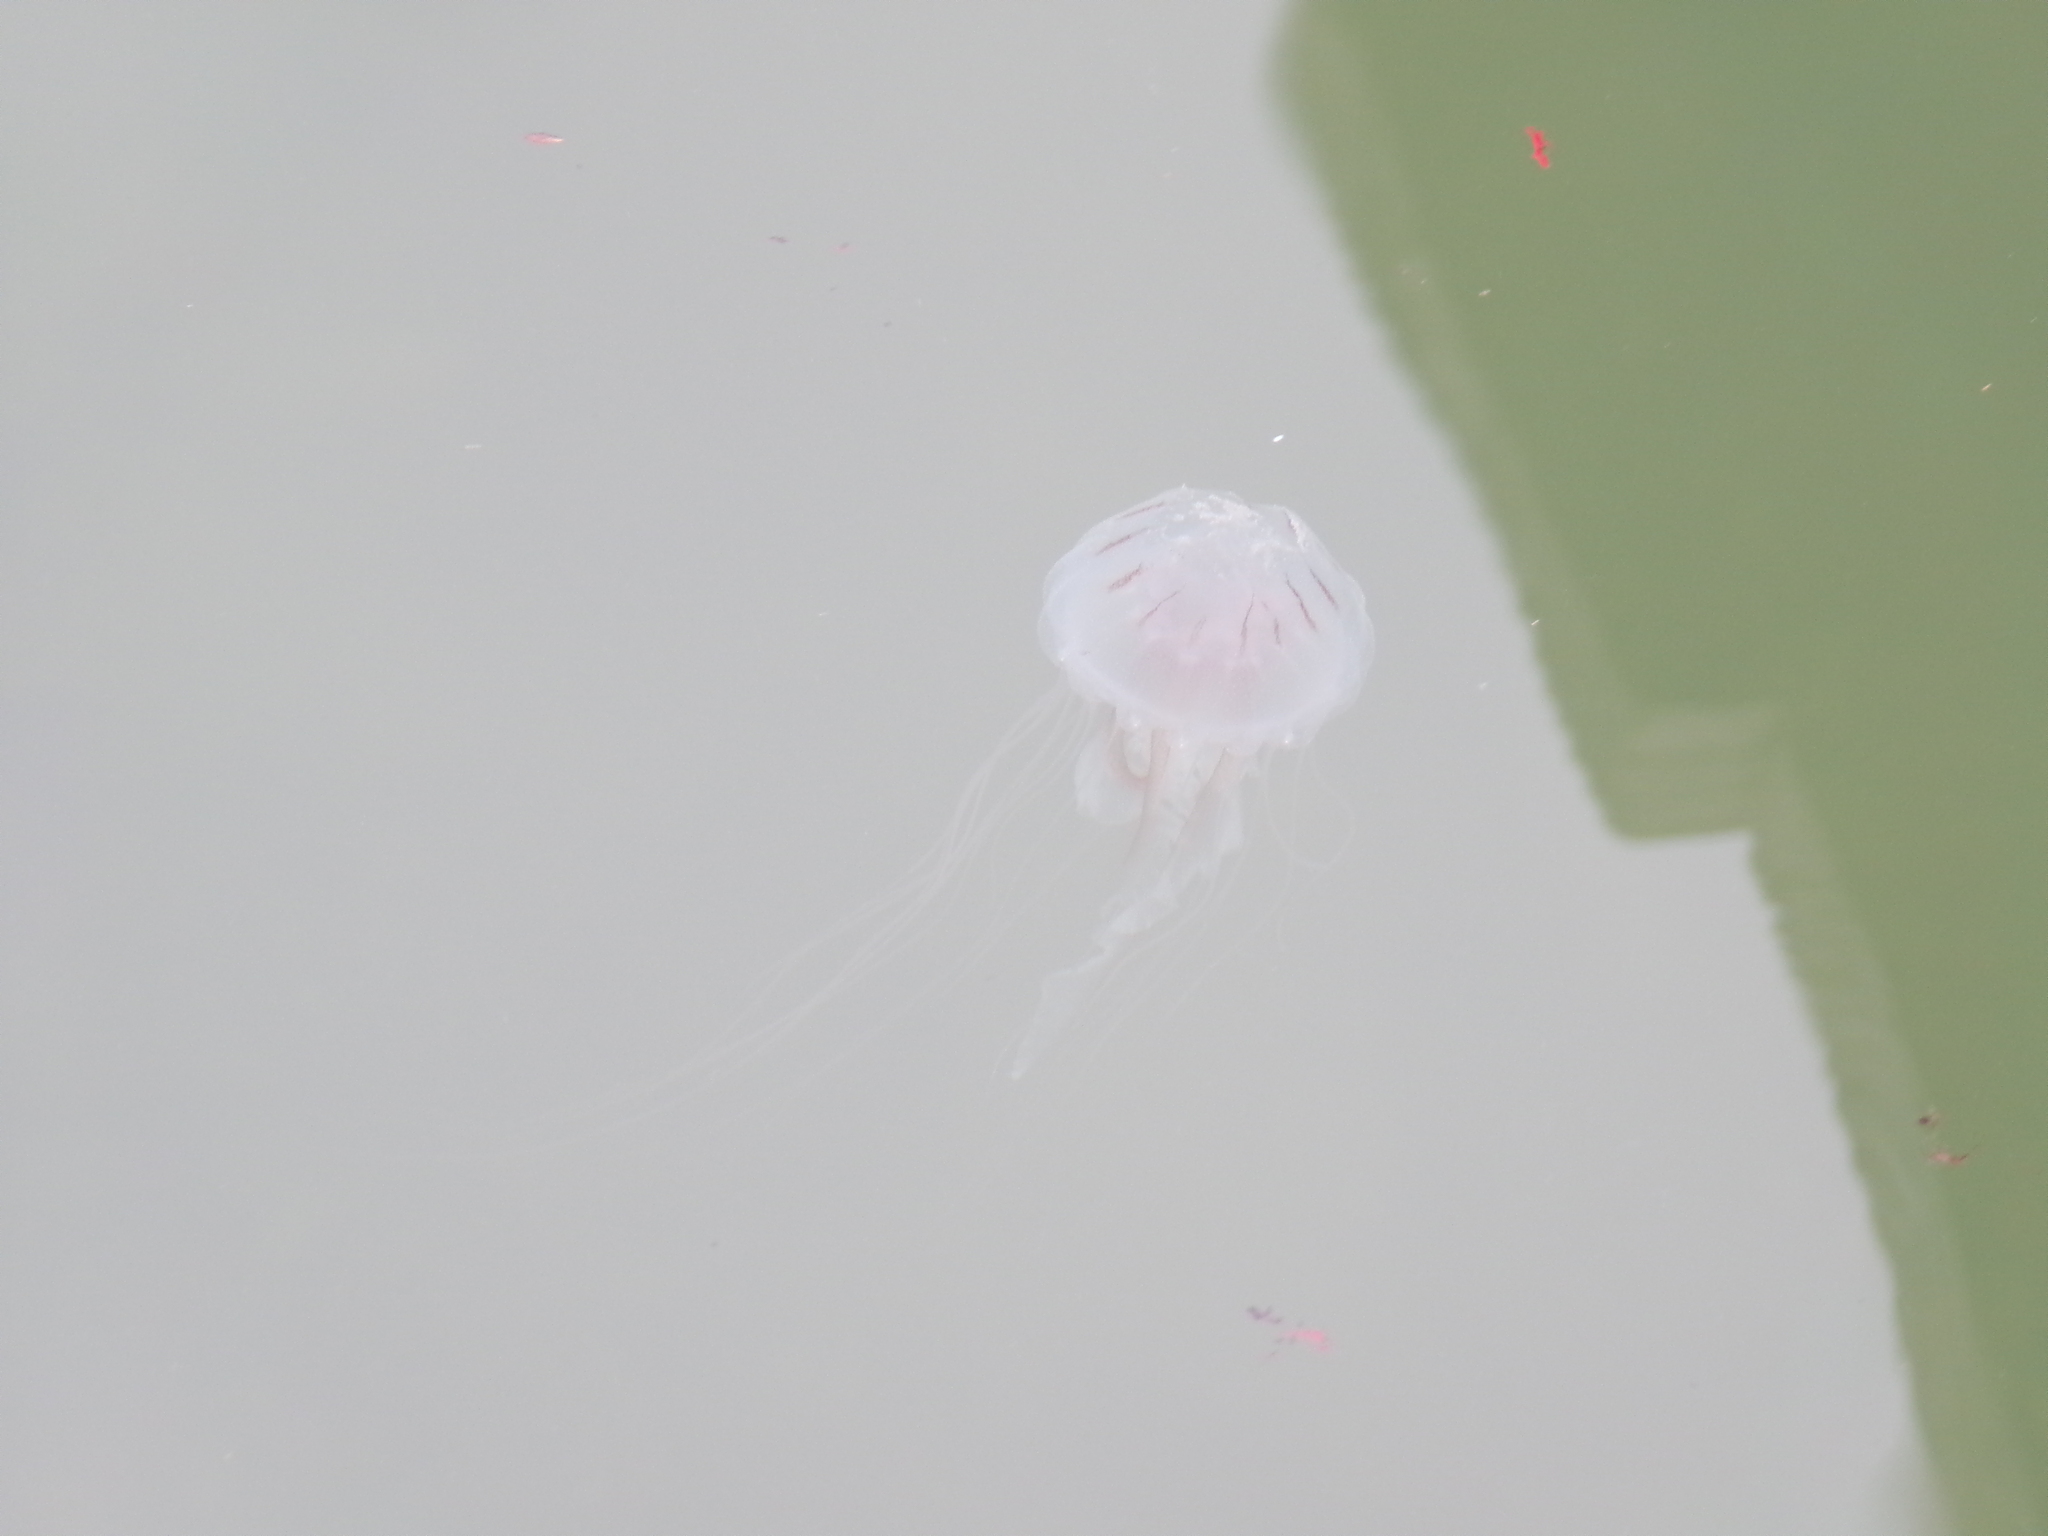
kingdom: Animalia
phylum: Cnidaria
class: Scyphozoa
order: Semaeostomeae
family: Pelagiidae
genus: Chrysaora
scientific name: Chrysaora chesapeakei
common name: Bay nettle
